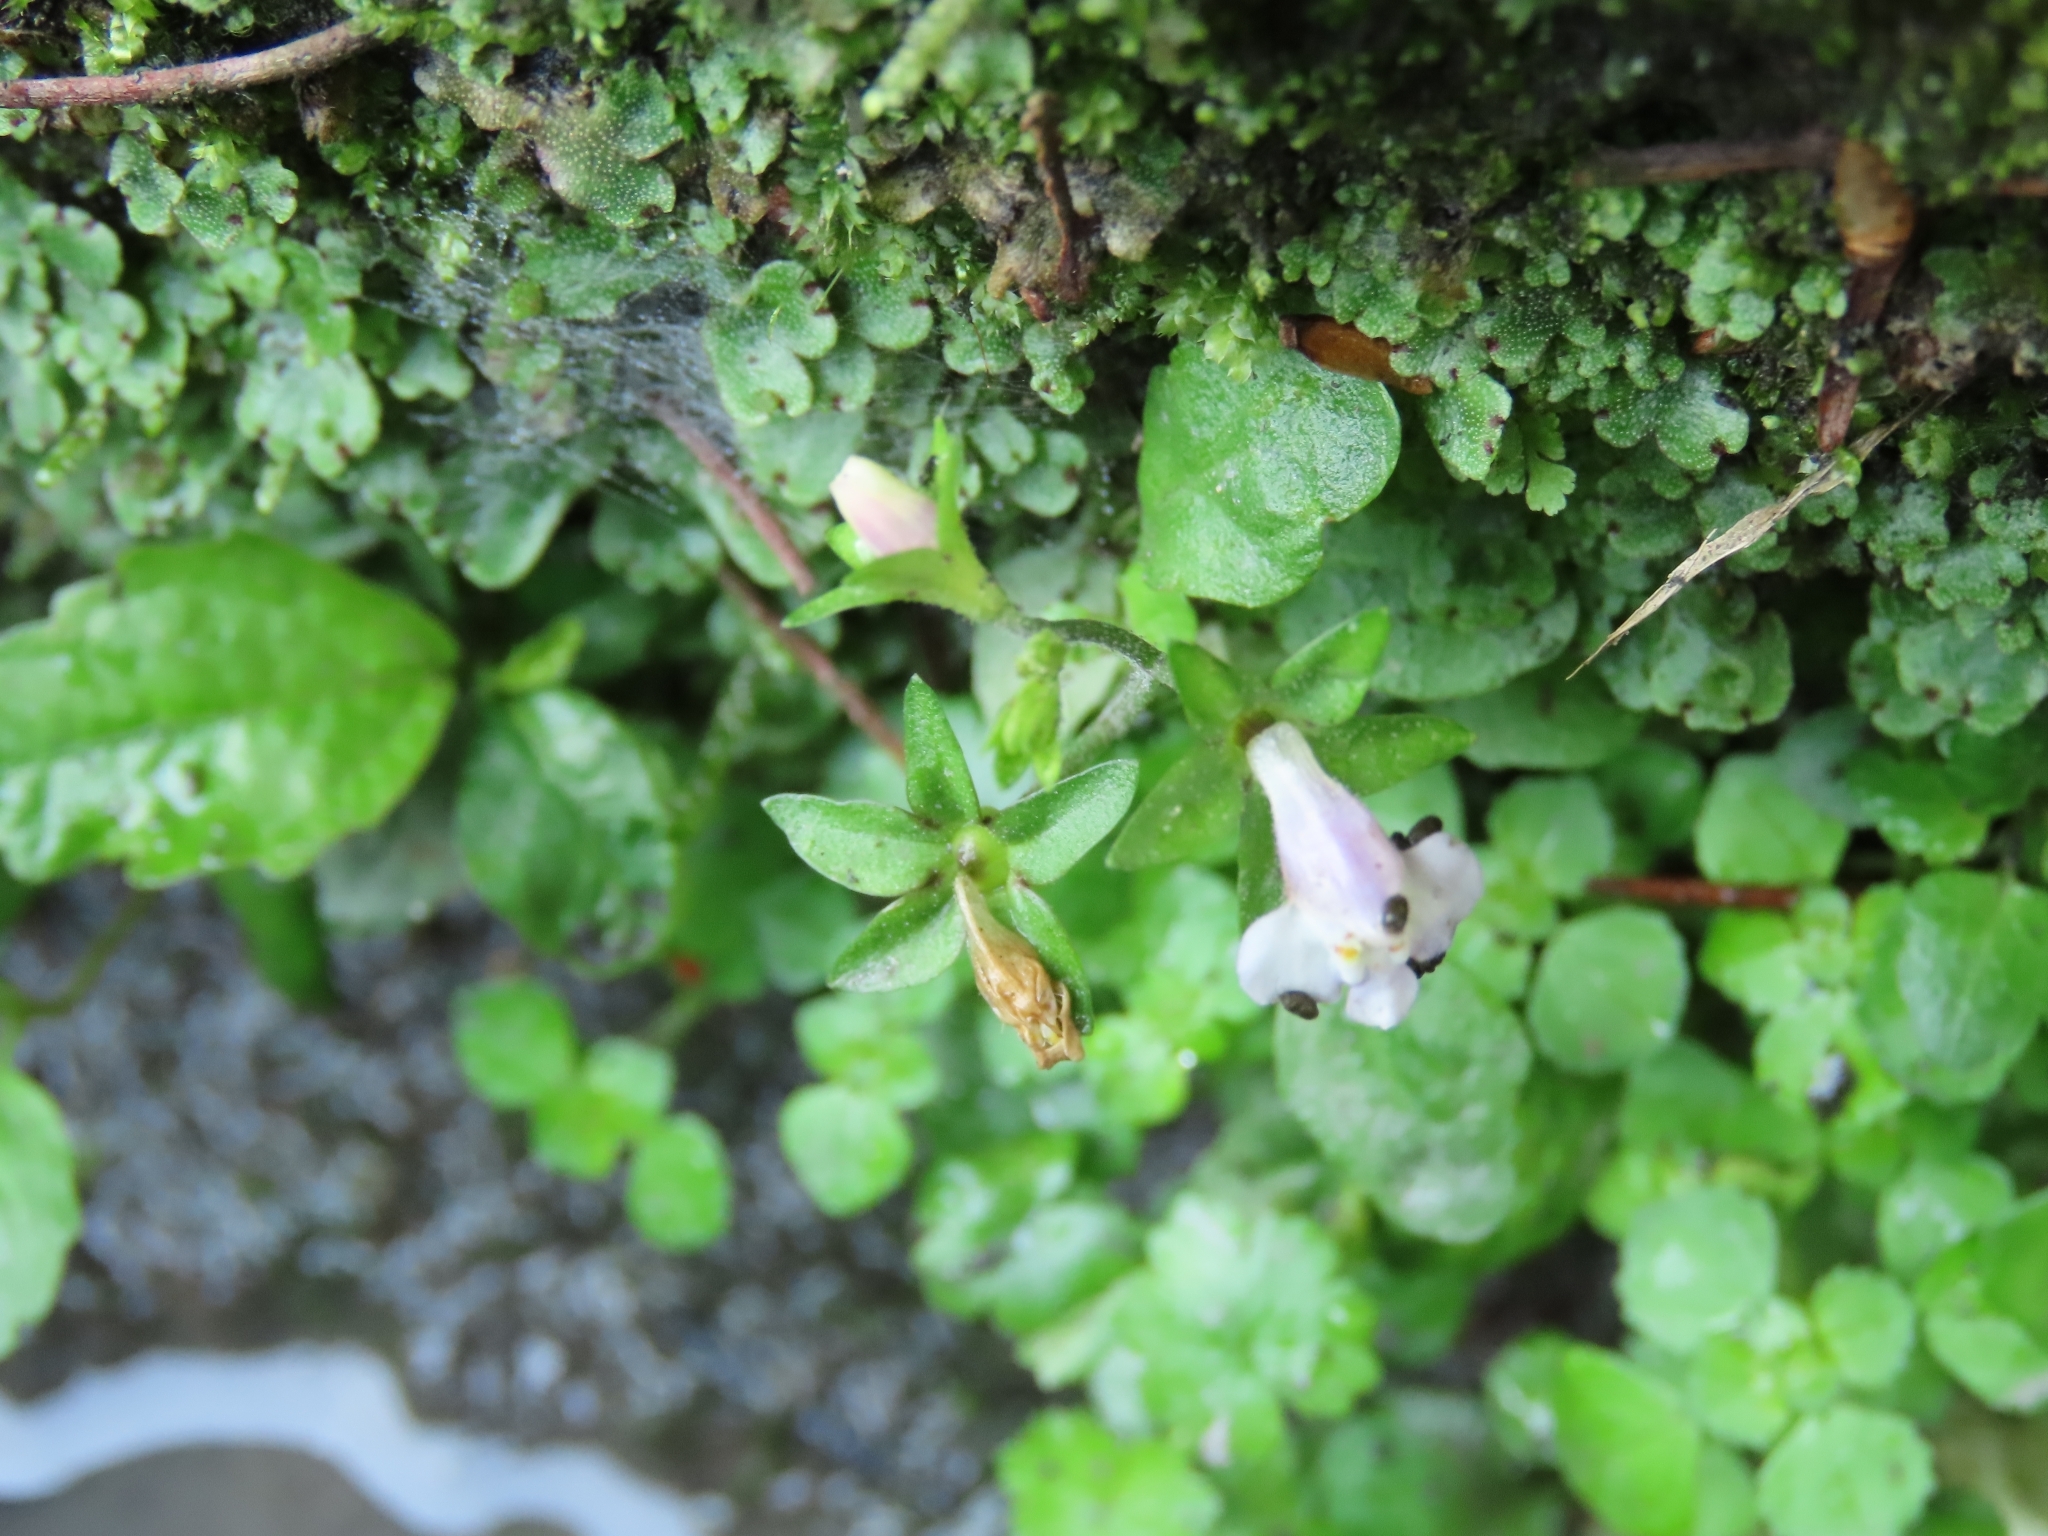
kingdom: Plantae
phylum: Tracheophyta
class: Magnoliopsida
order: Lamiales
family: Mazaceae
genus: Mazus
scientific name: Mazus pumilus
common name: Japanese mazus
